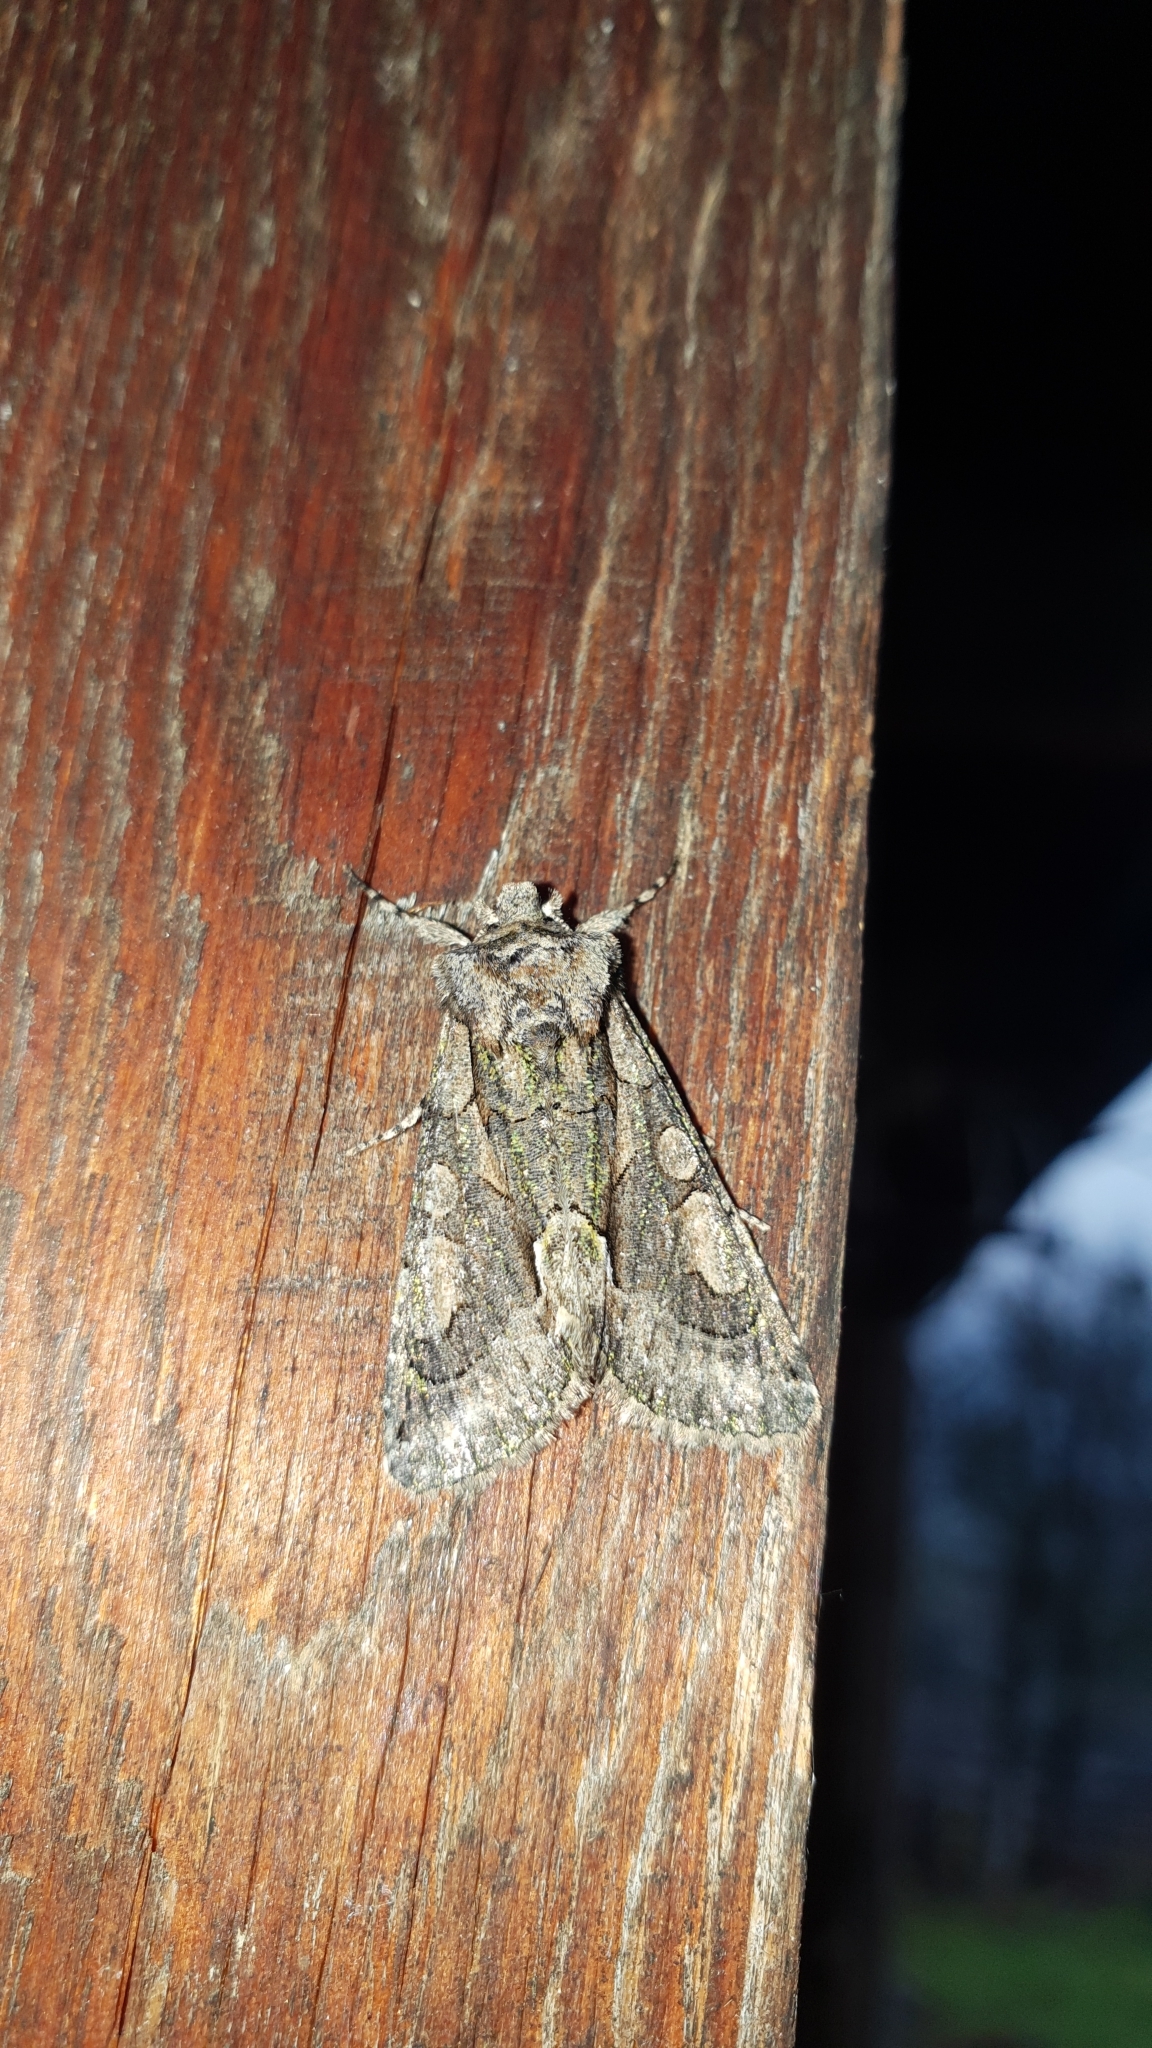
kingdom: Animalia
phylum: Arthropoda
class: Insecta
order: Lepidoptera
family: Noctuidae
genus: Allophyes
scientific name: Allophyes oxyacanthae
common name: Green-brindled crescent
